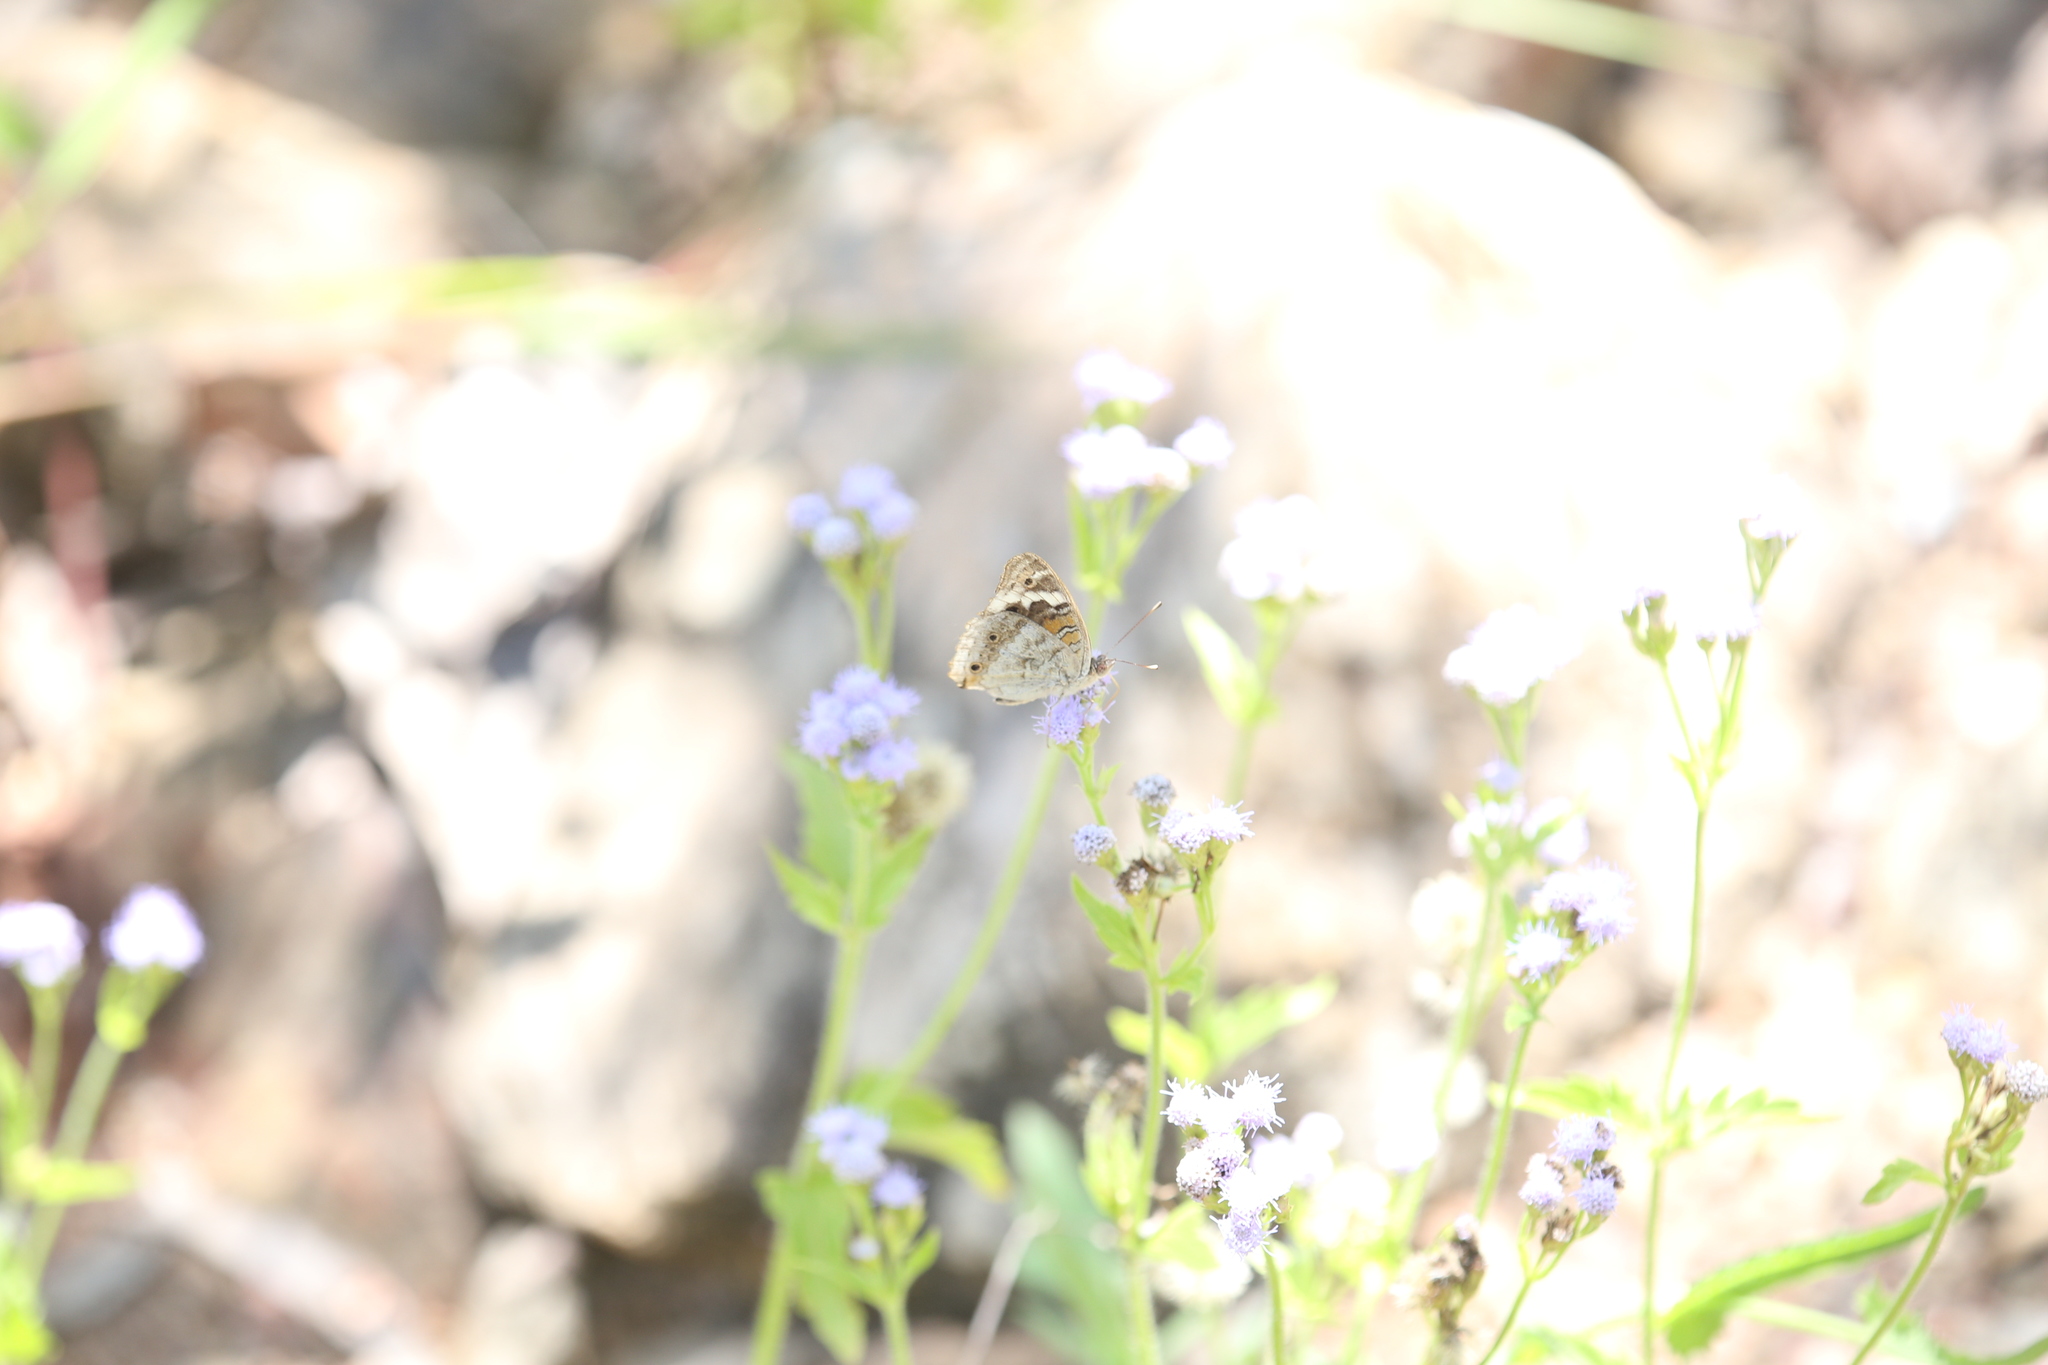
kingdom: Animalia
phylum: Arthropoda
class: Insecta
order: Lepidoptera
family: Nymphalidae
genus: Junonia
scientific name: Junonia orithya
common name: Blue pansy
